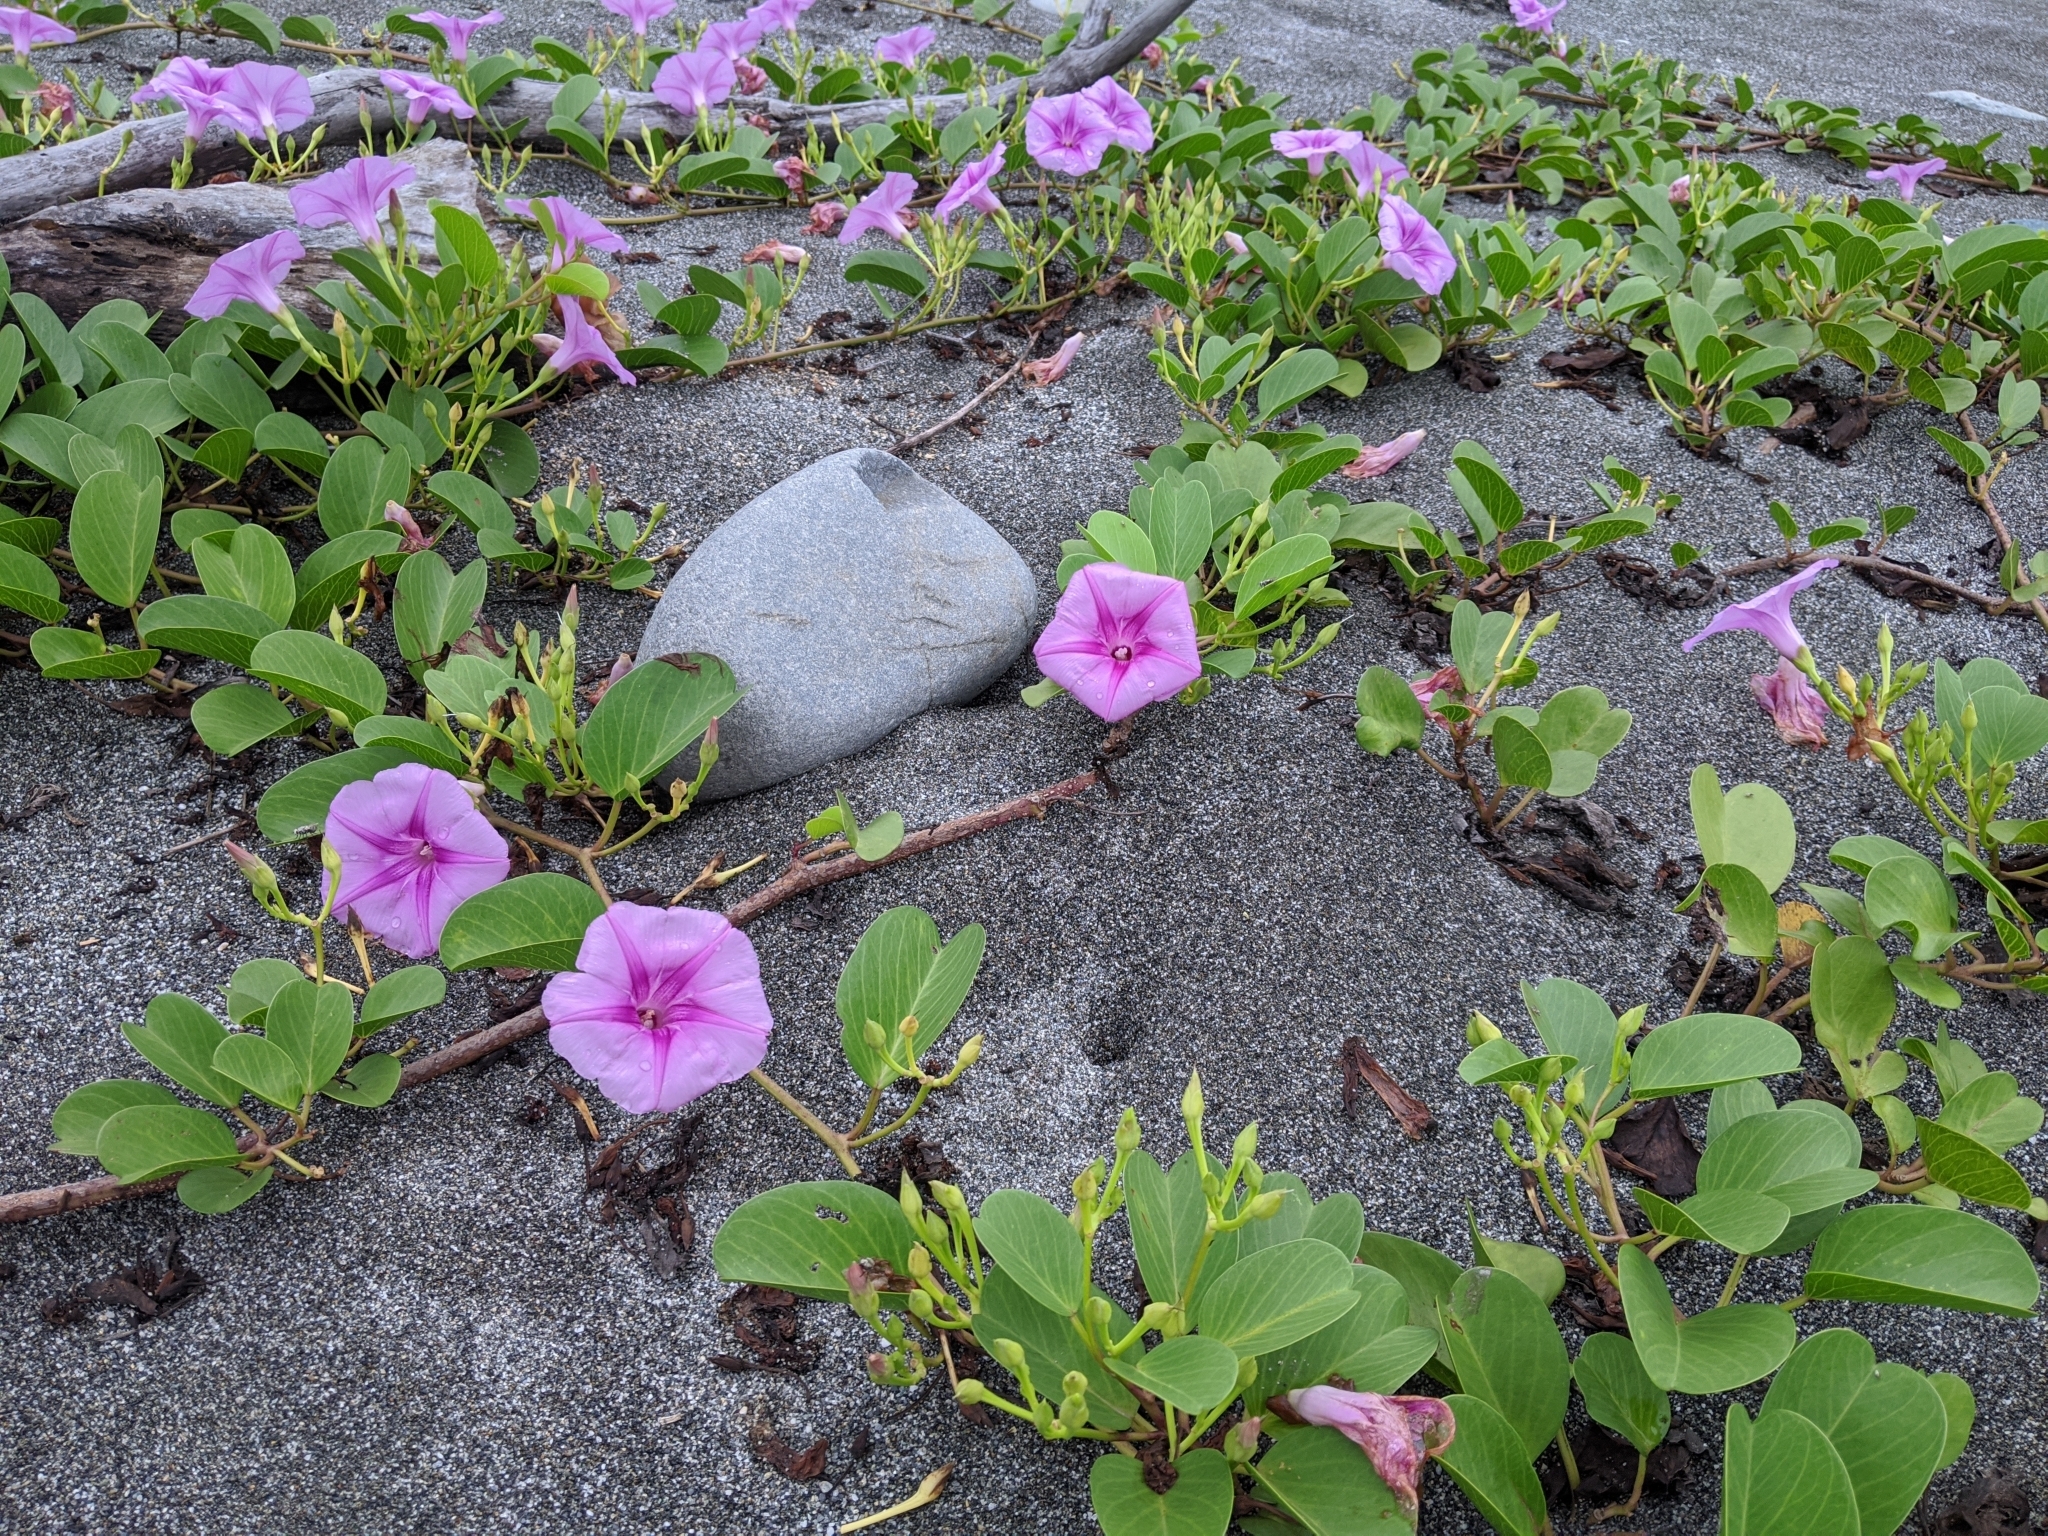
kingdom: Plantae
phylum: Tracheophyta
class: Magnoliopsida
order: Solanales
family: Convolvulaceae
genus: Ipomoea
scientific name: Ipomoea pes-caprae
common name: Beach morning glory
